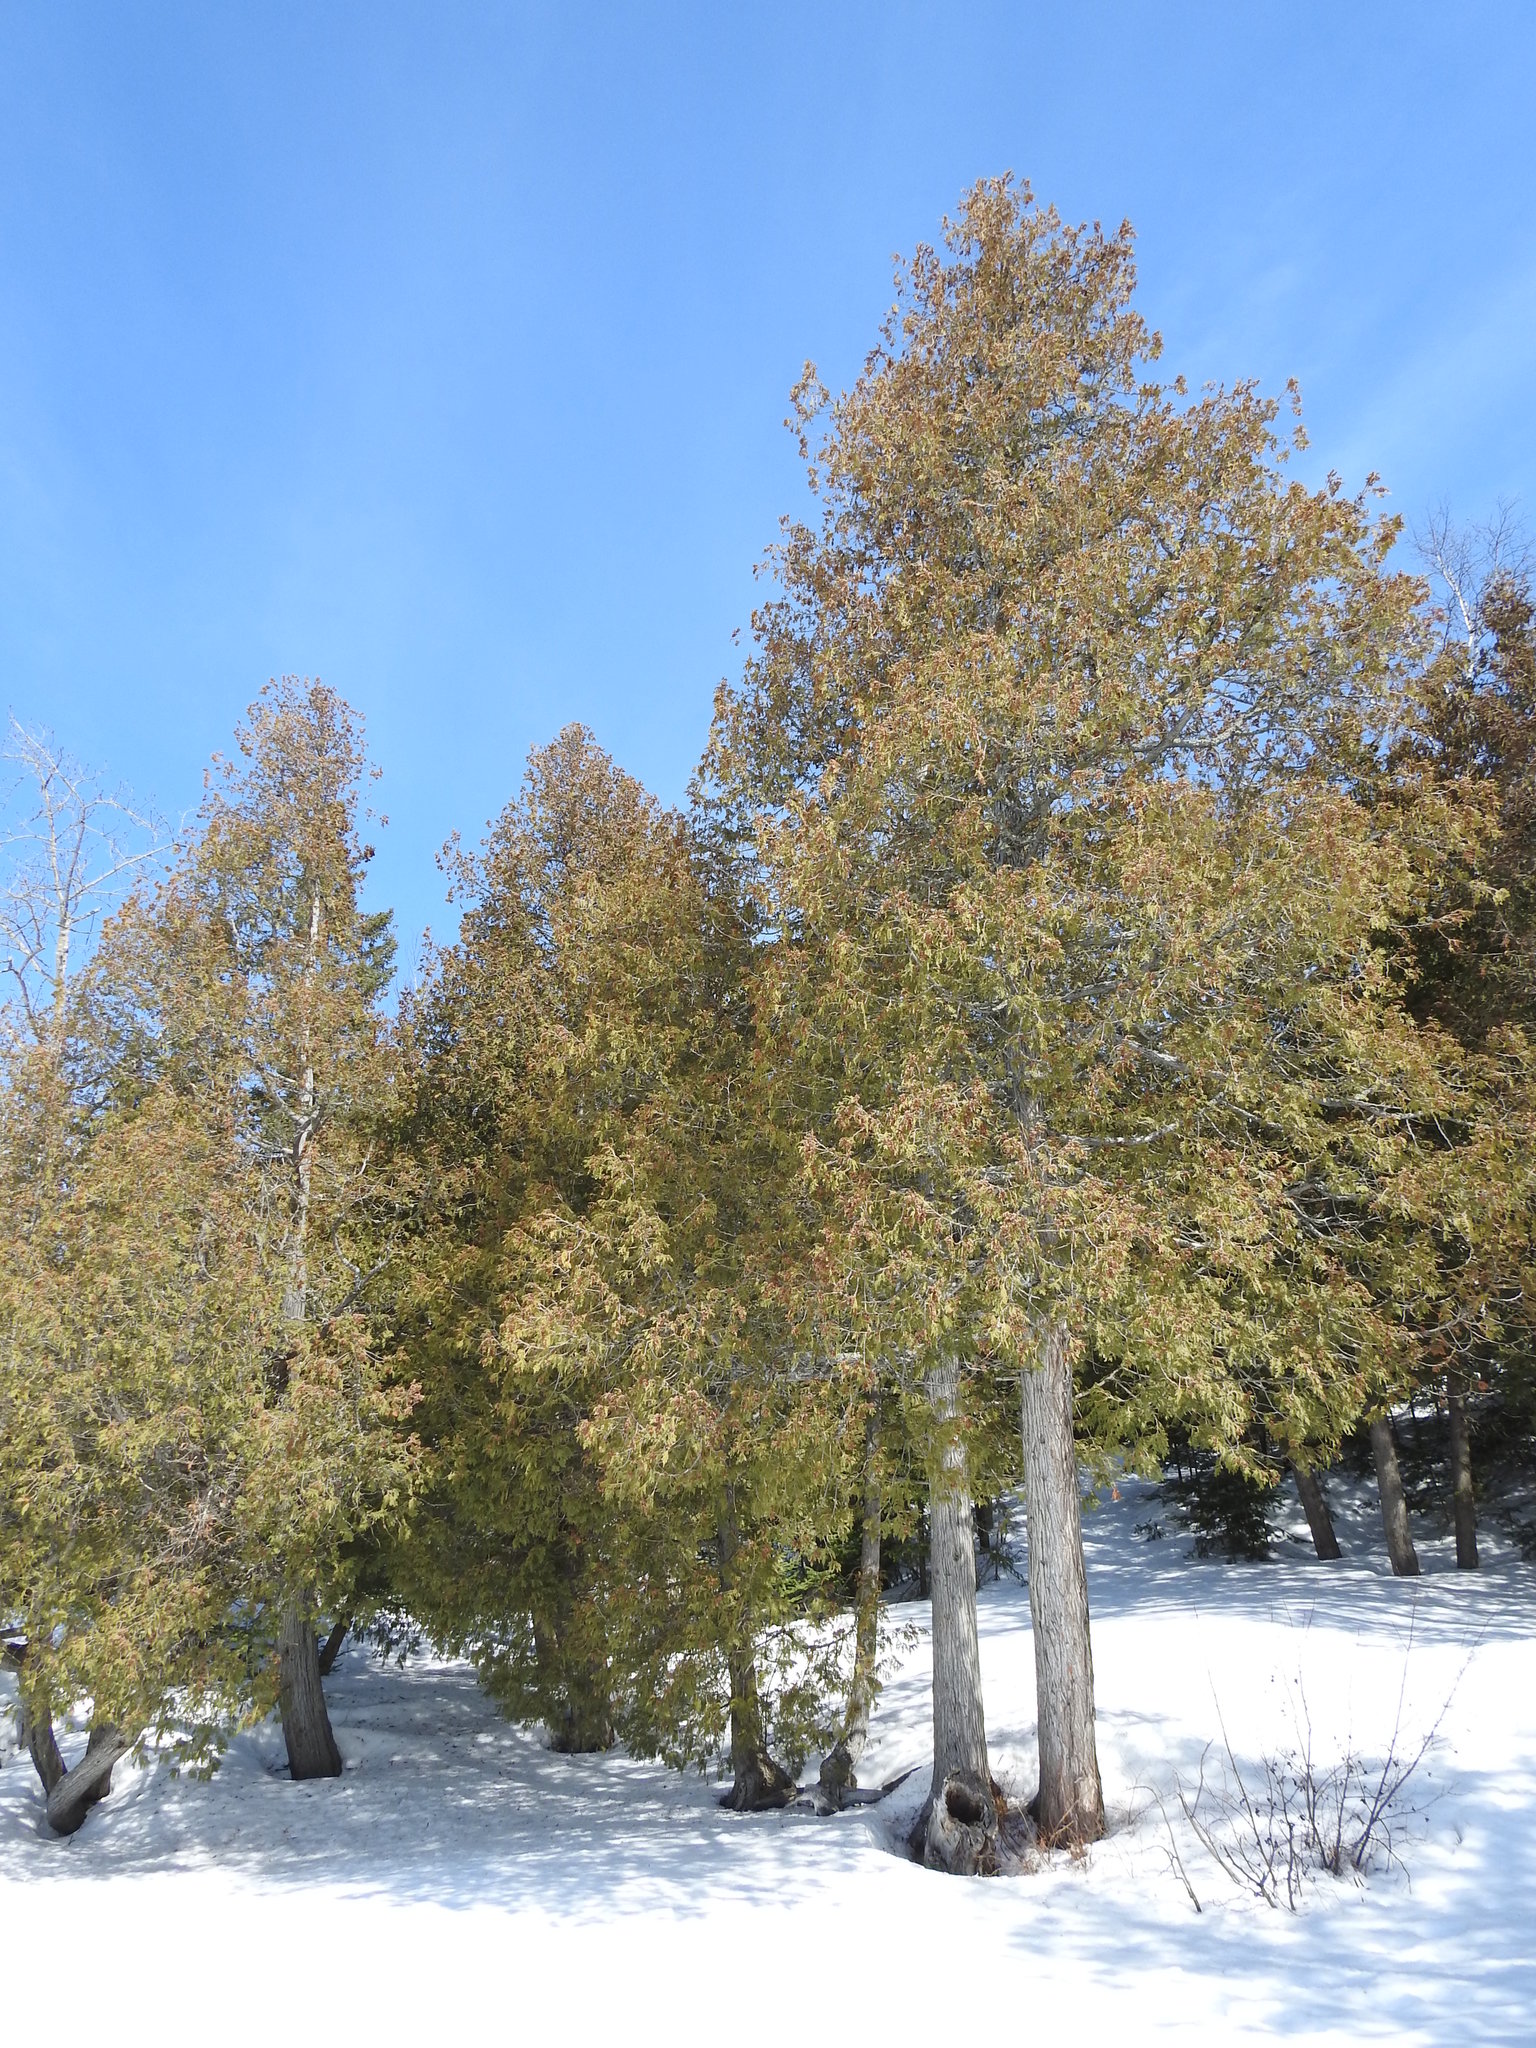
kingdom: Plantae
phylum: Tracheophyta
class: Pinopsida
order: Pinales
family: Cupressaceae
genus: Thuja
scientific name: Thuja occidentalis
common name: Northern white-cedar
